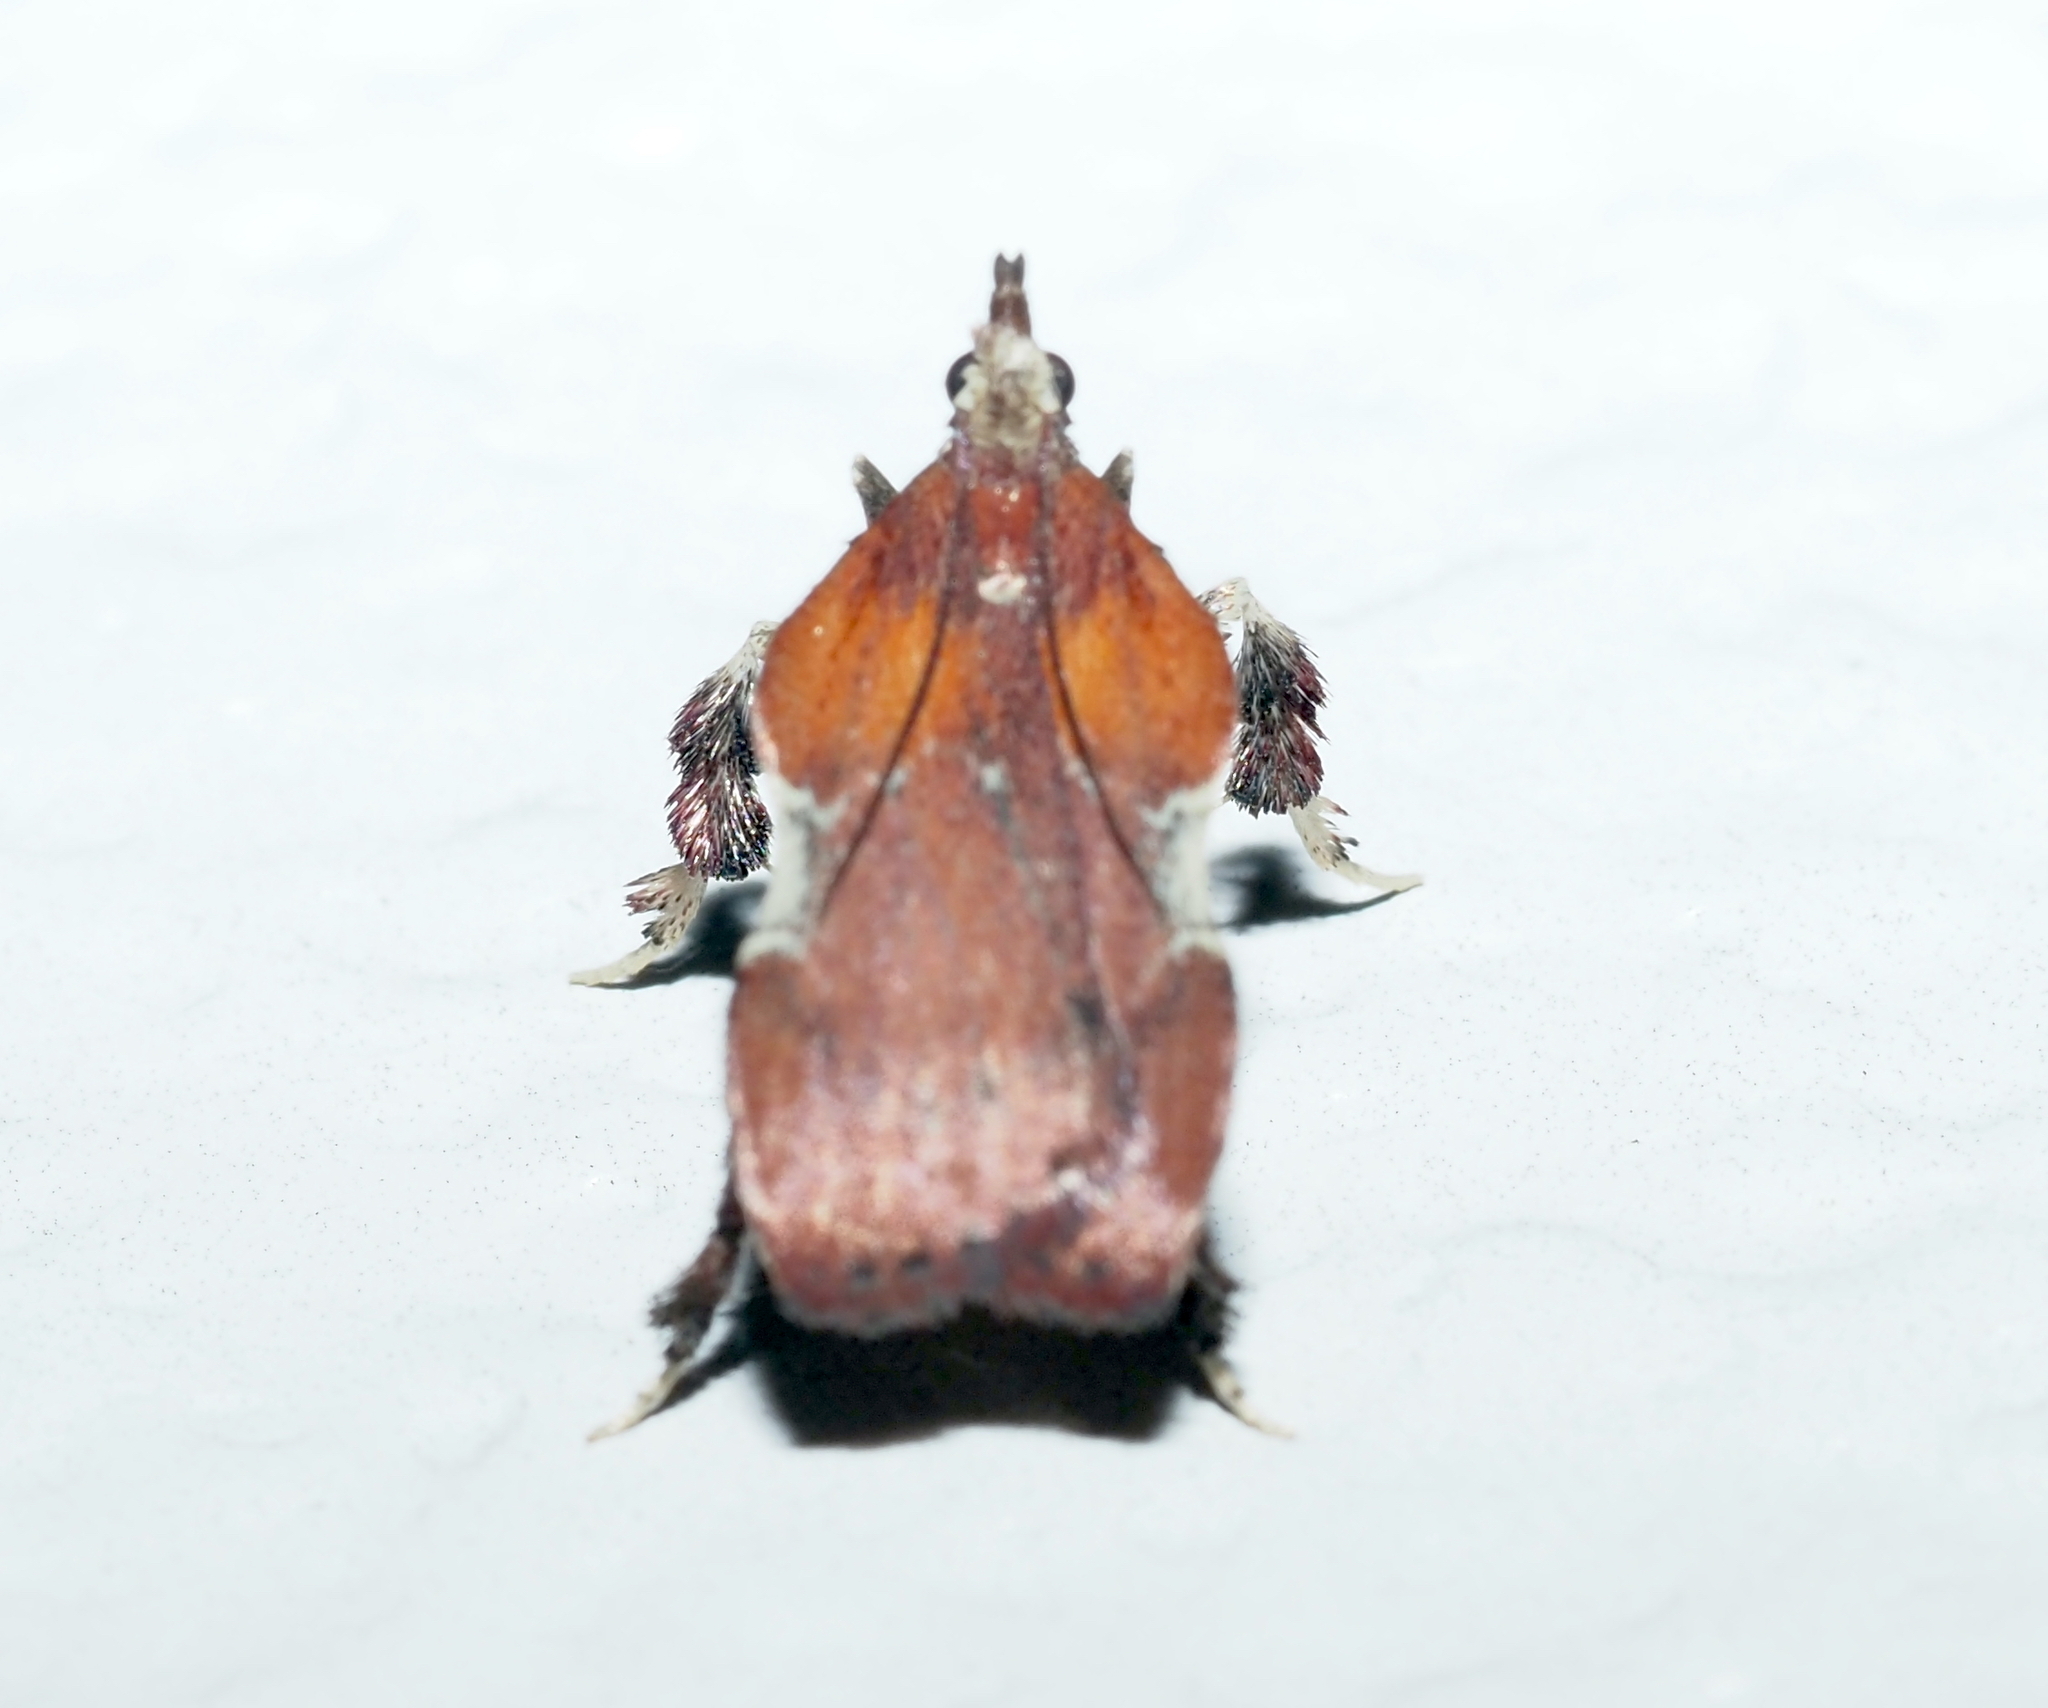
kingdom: Animalia
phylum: Arthropoda
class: Insecta
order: Lepidoptera
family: Pyralidae
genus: Galasa
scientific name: Galasa nigrinodis
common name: Boxwood leaftier moth
